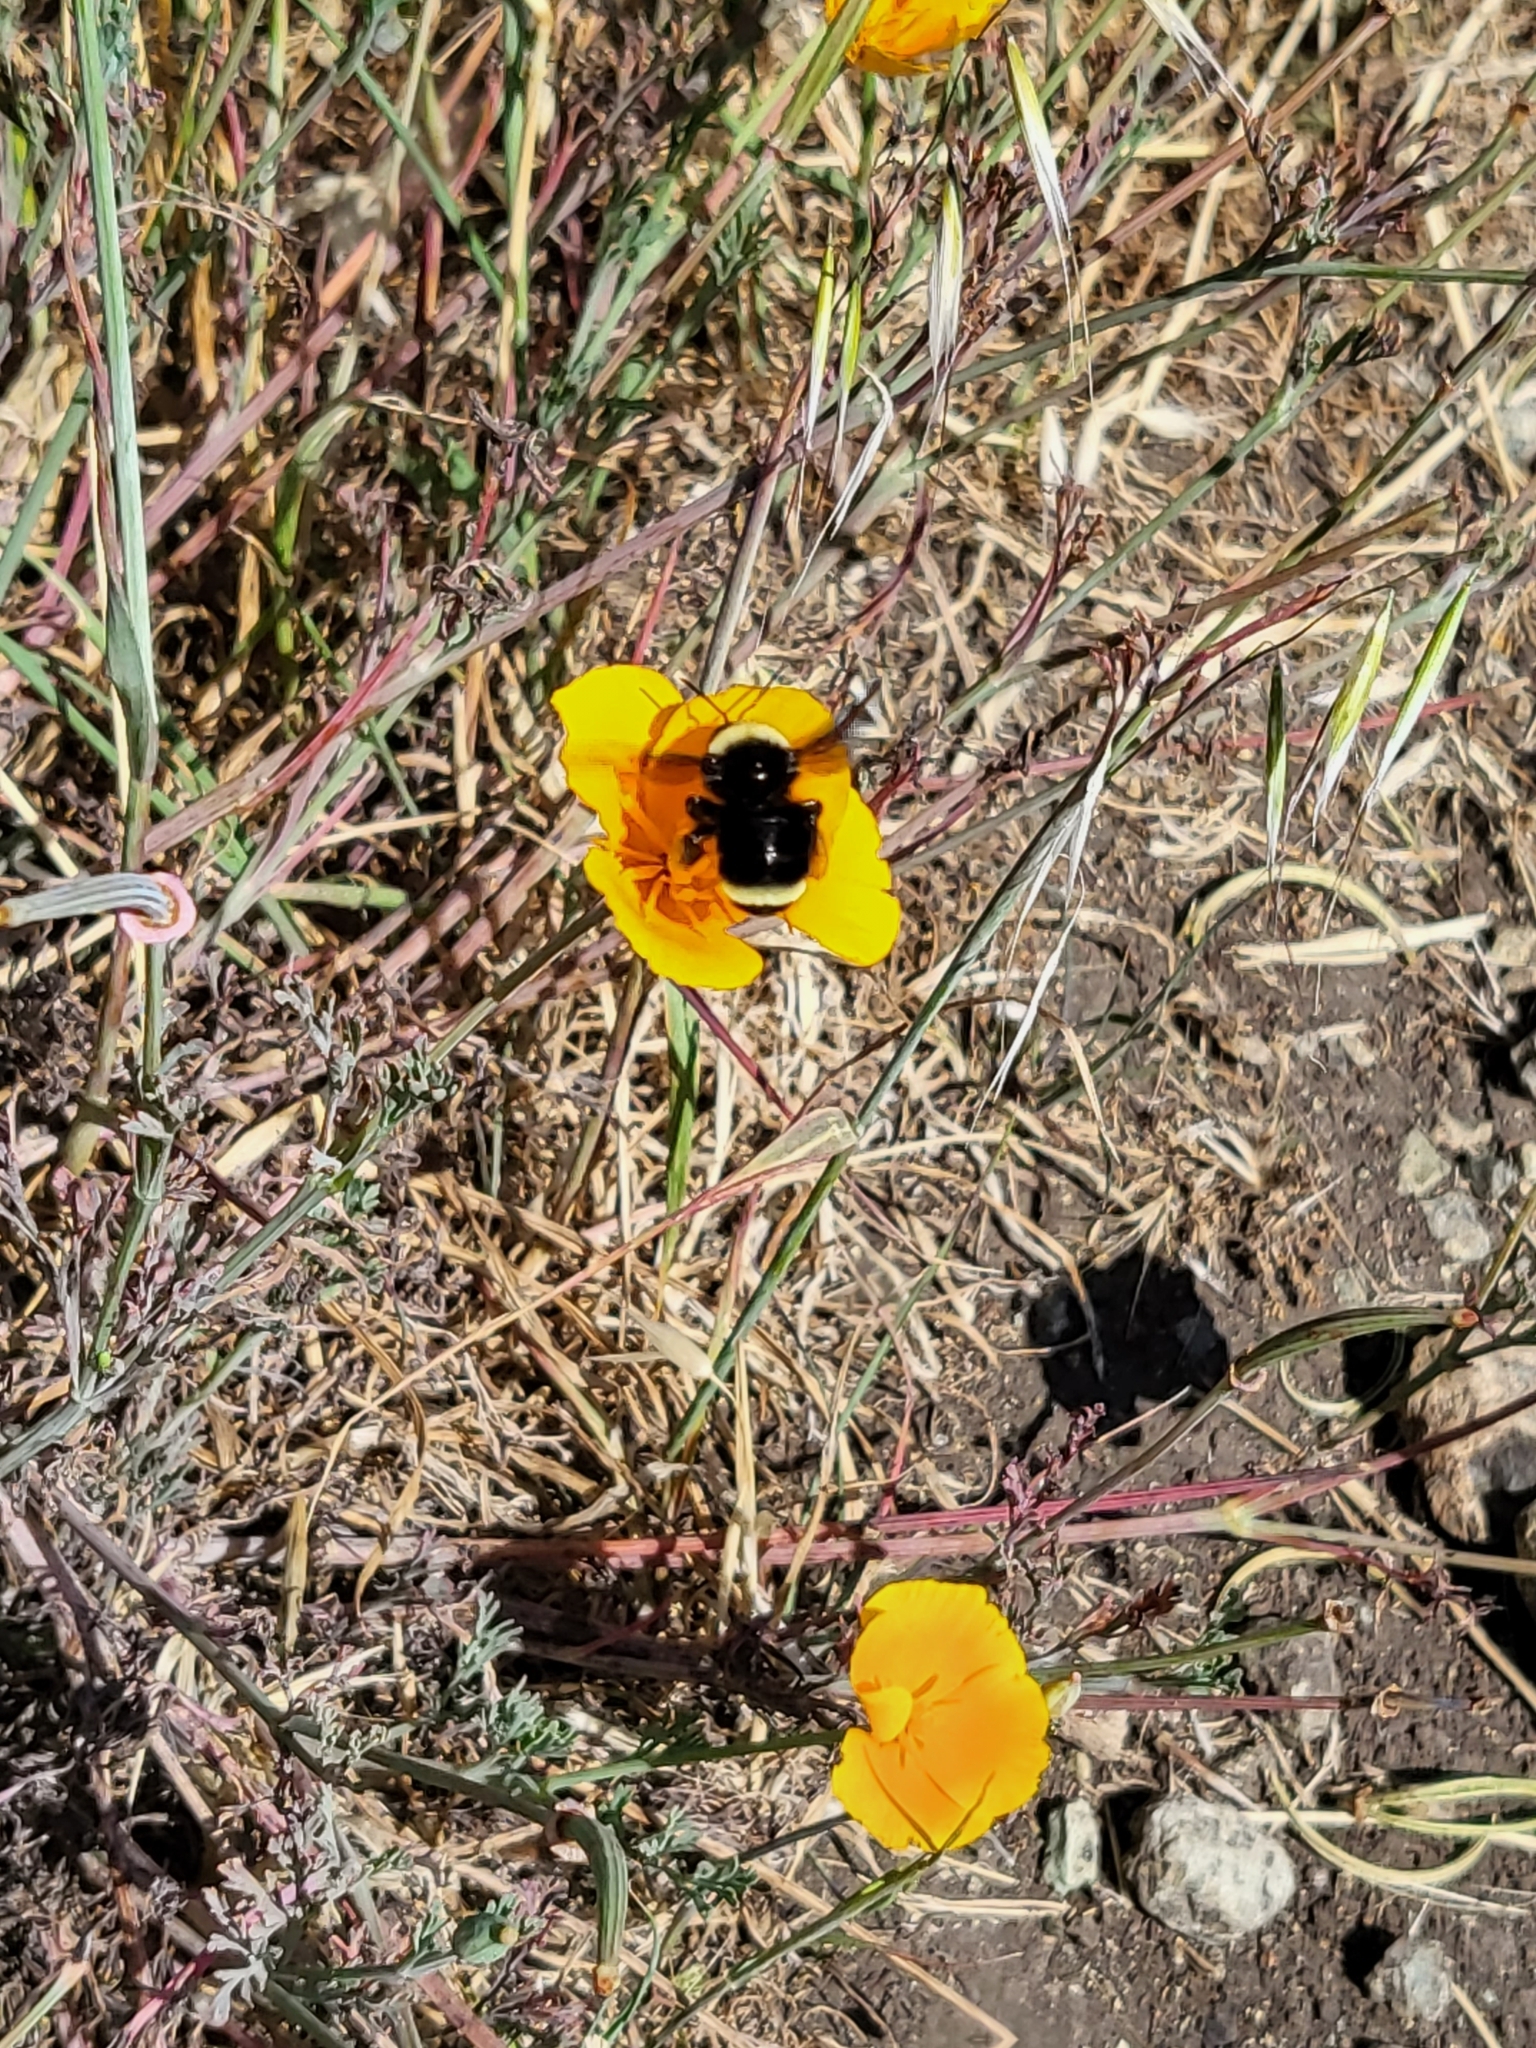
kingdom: Animalia
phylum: Arthropoda
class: Insecta
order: Hymenoptera
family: Apidae
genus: Bombus
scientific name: Bombus vosnesenskii
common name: Vosnesensky bumble bee
